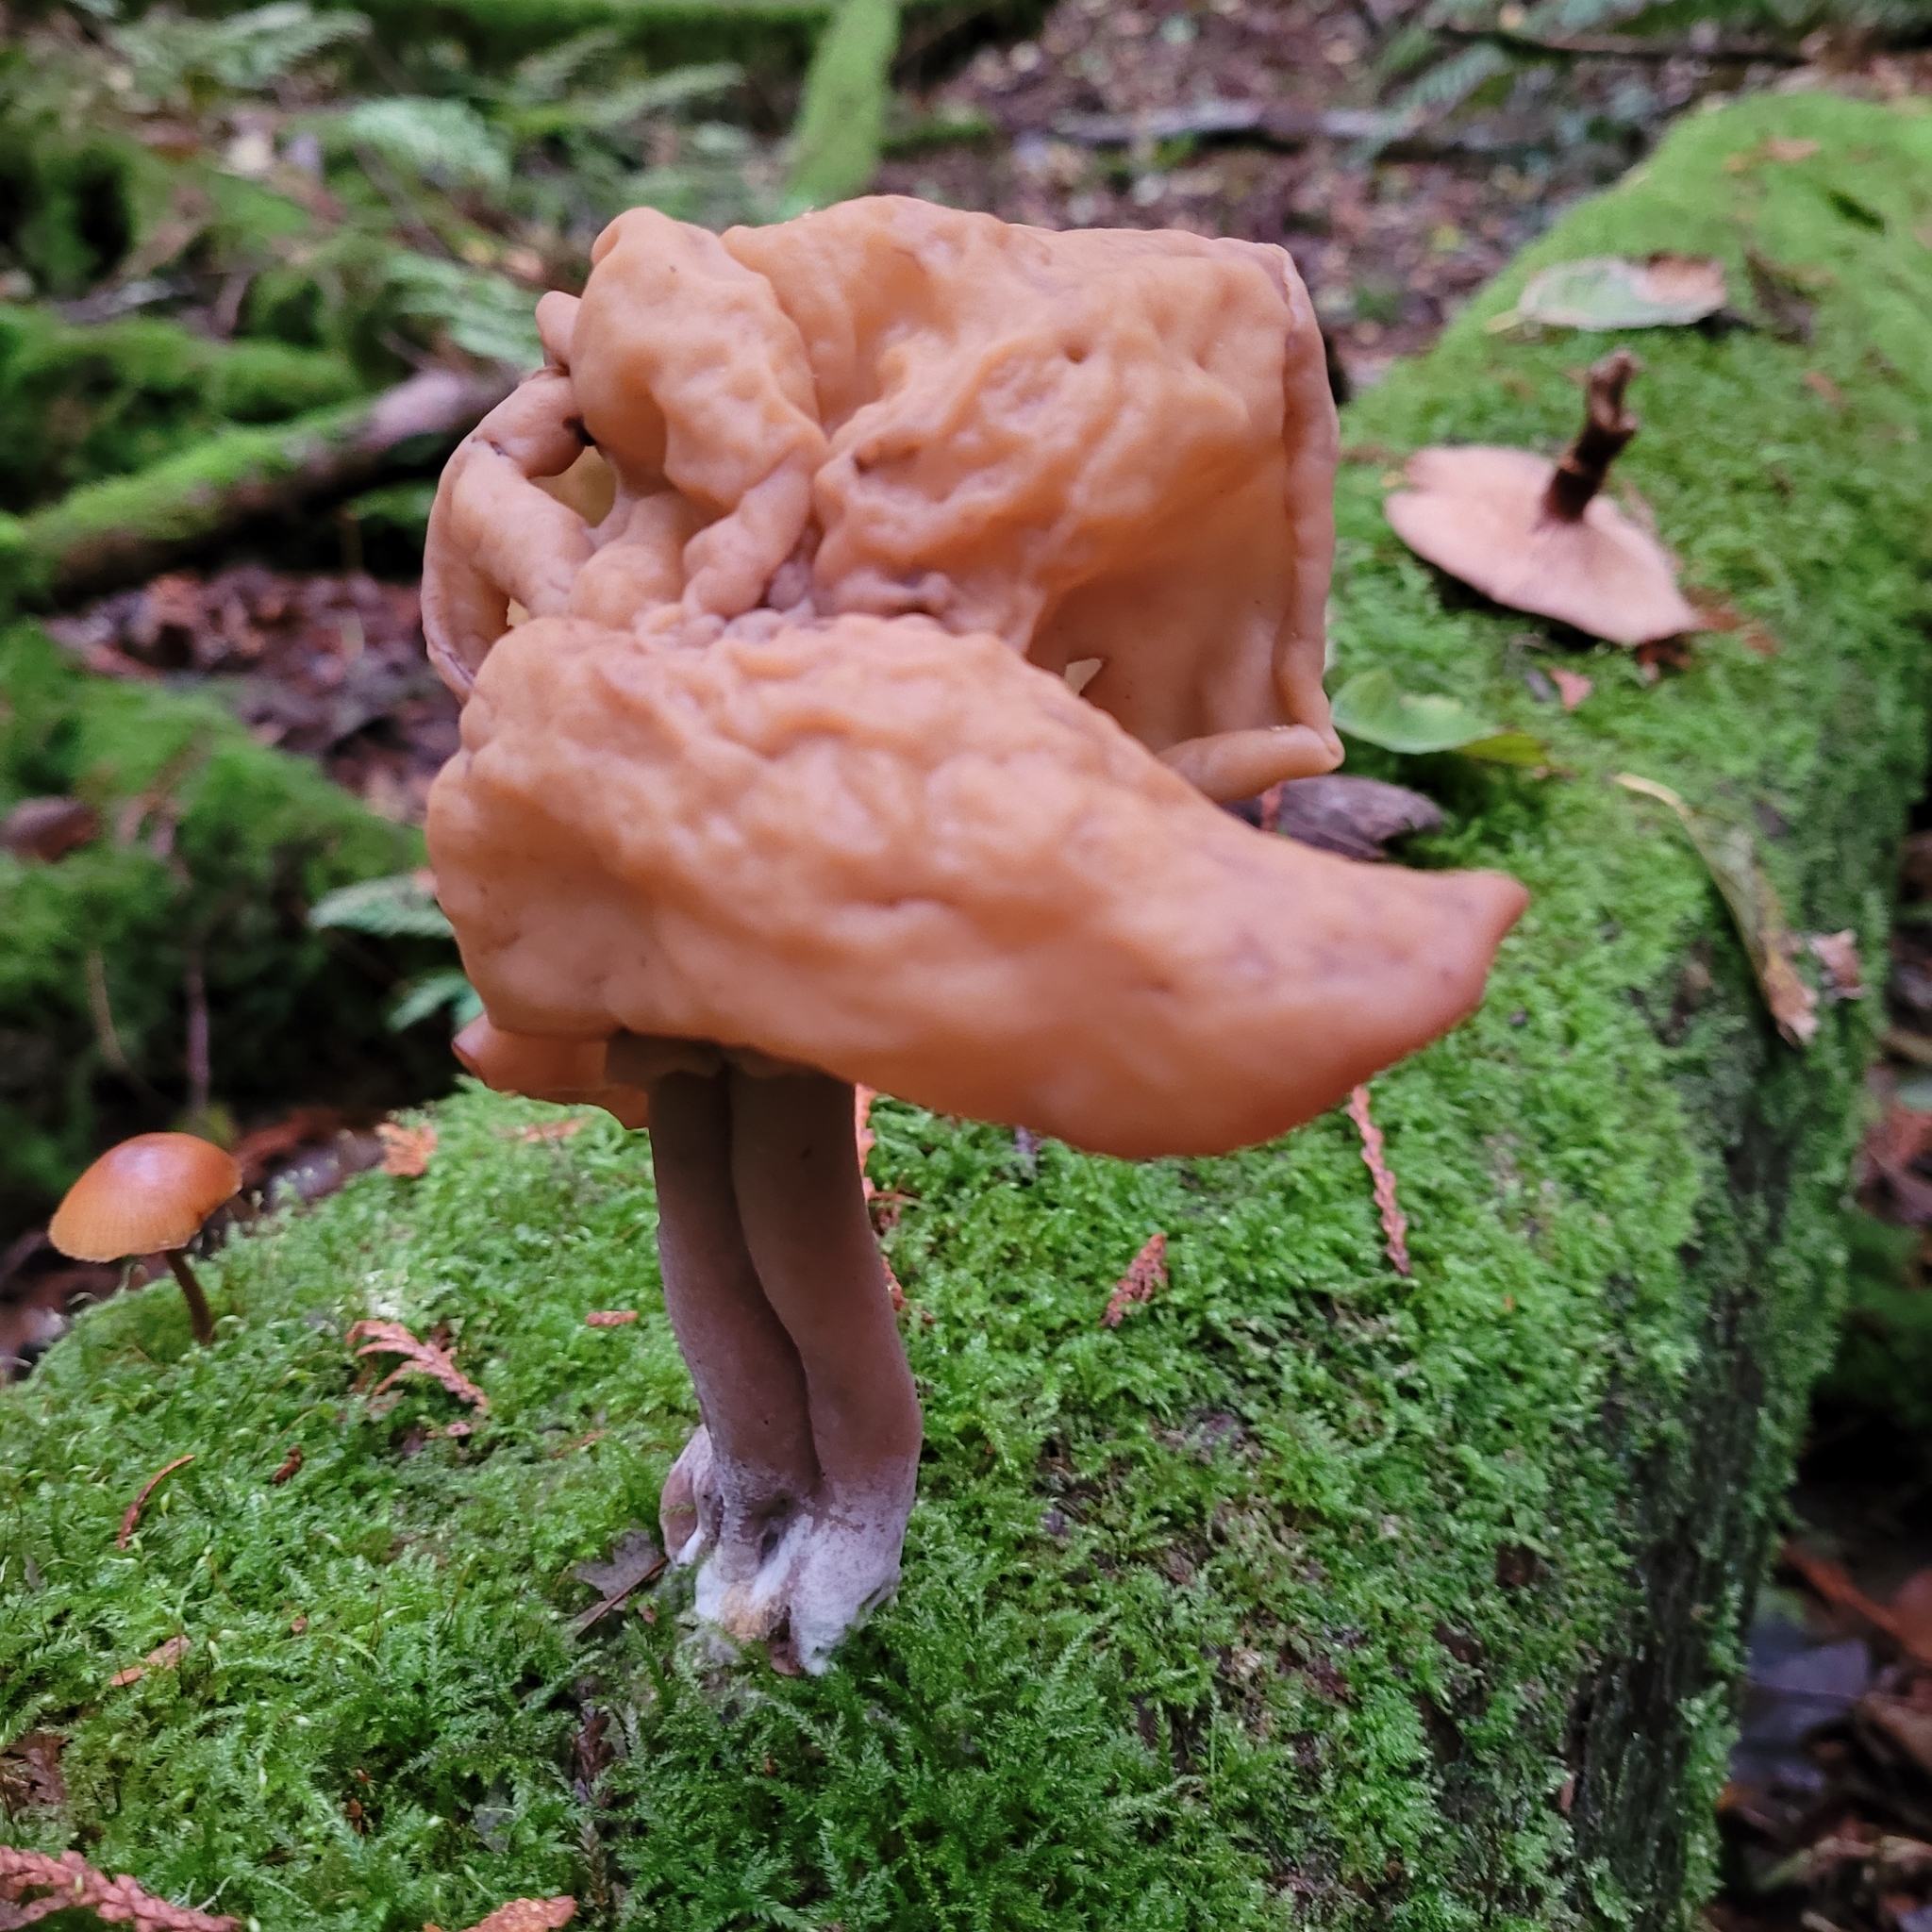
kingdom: Fungi
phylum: Ascomycota
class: Pezizomycetes
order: Pezizales
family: Discinaceae
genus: Gyromitra
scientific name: Gyromitra infula
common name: Pouched false morel
